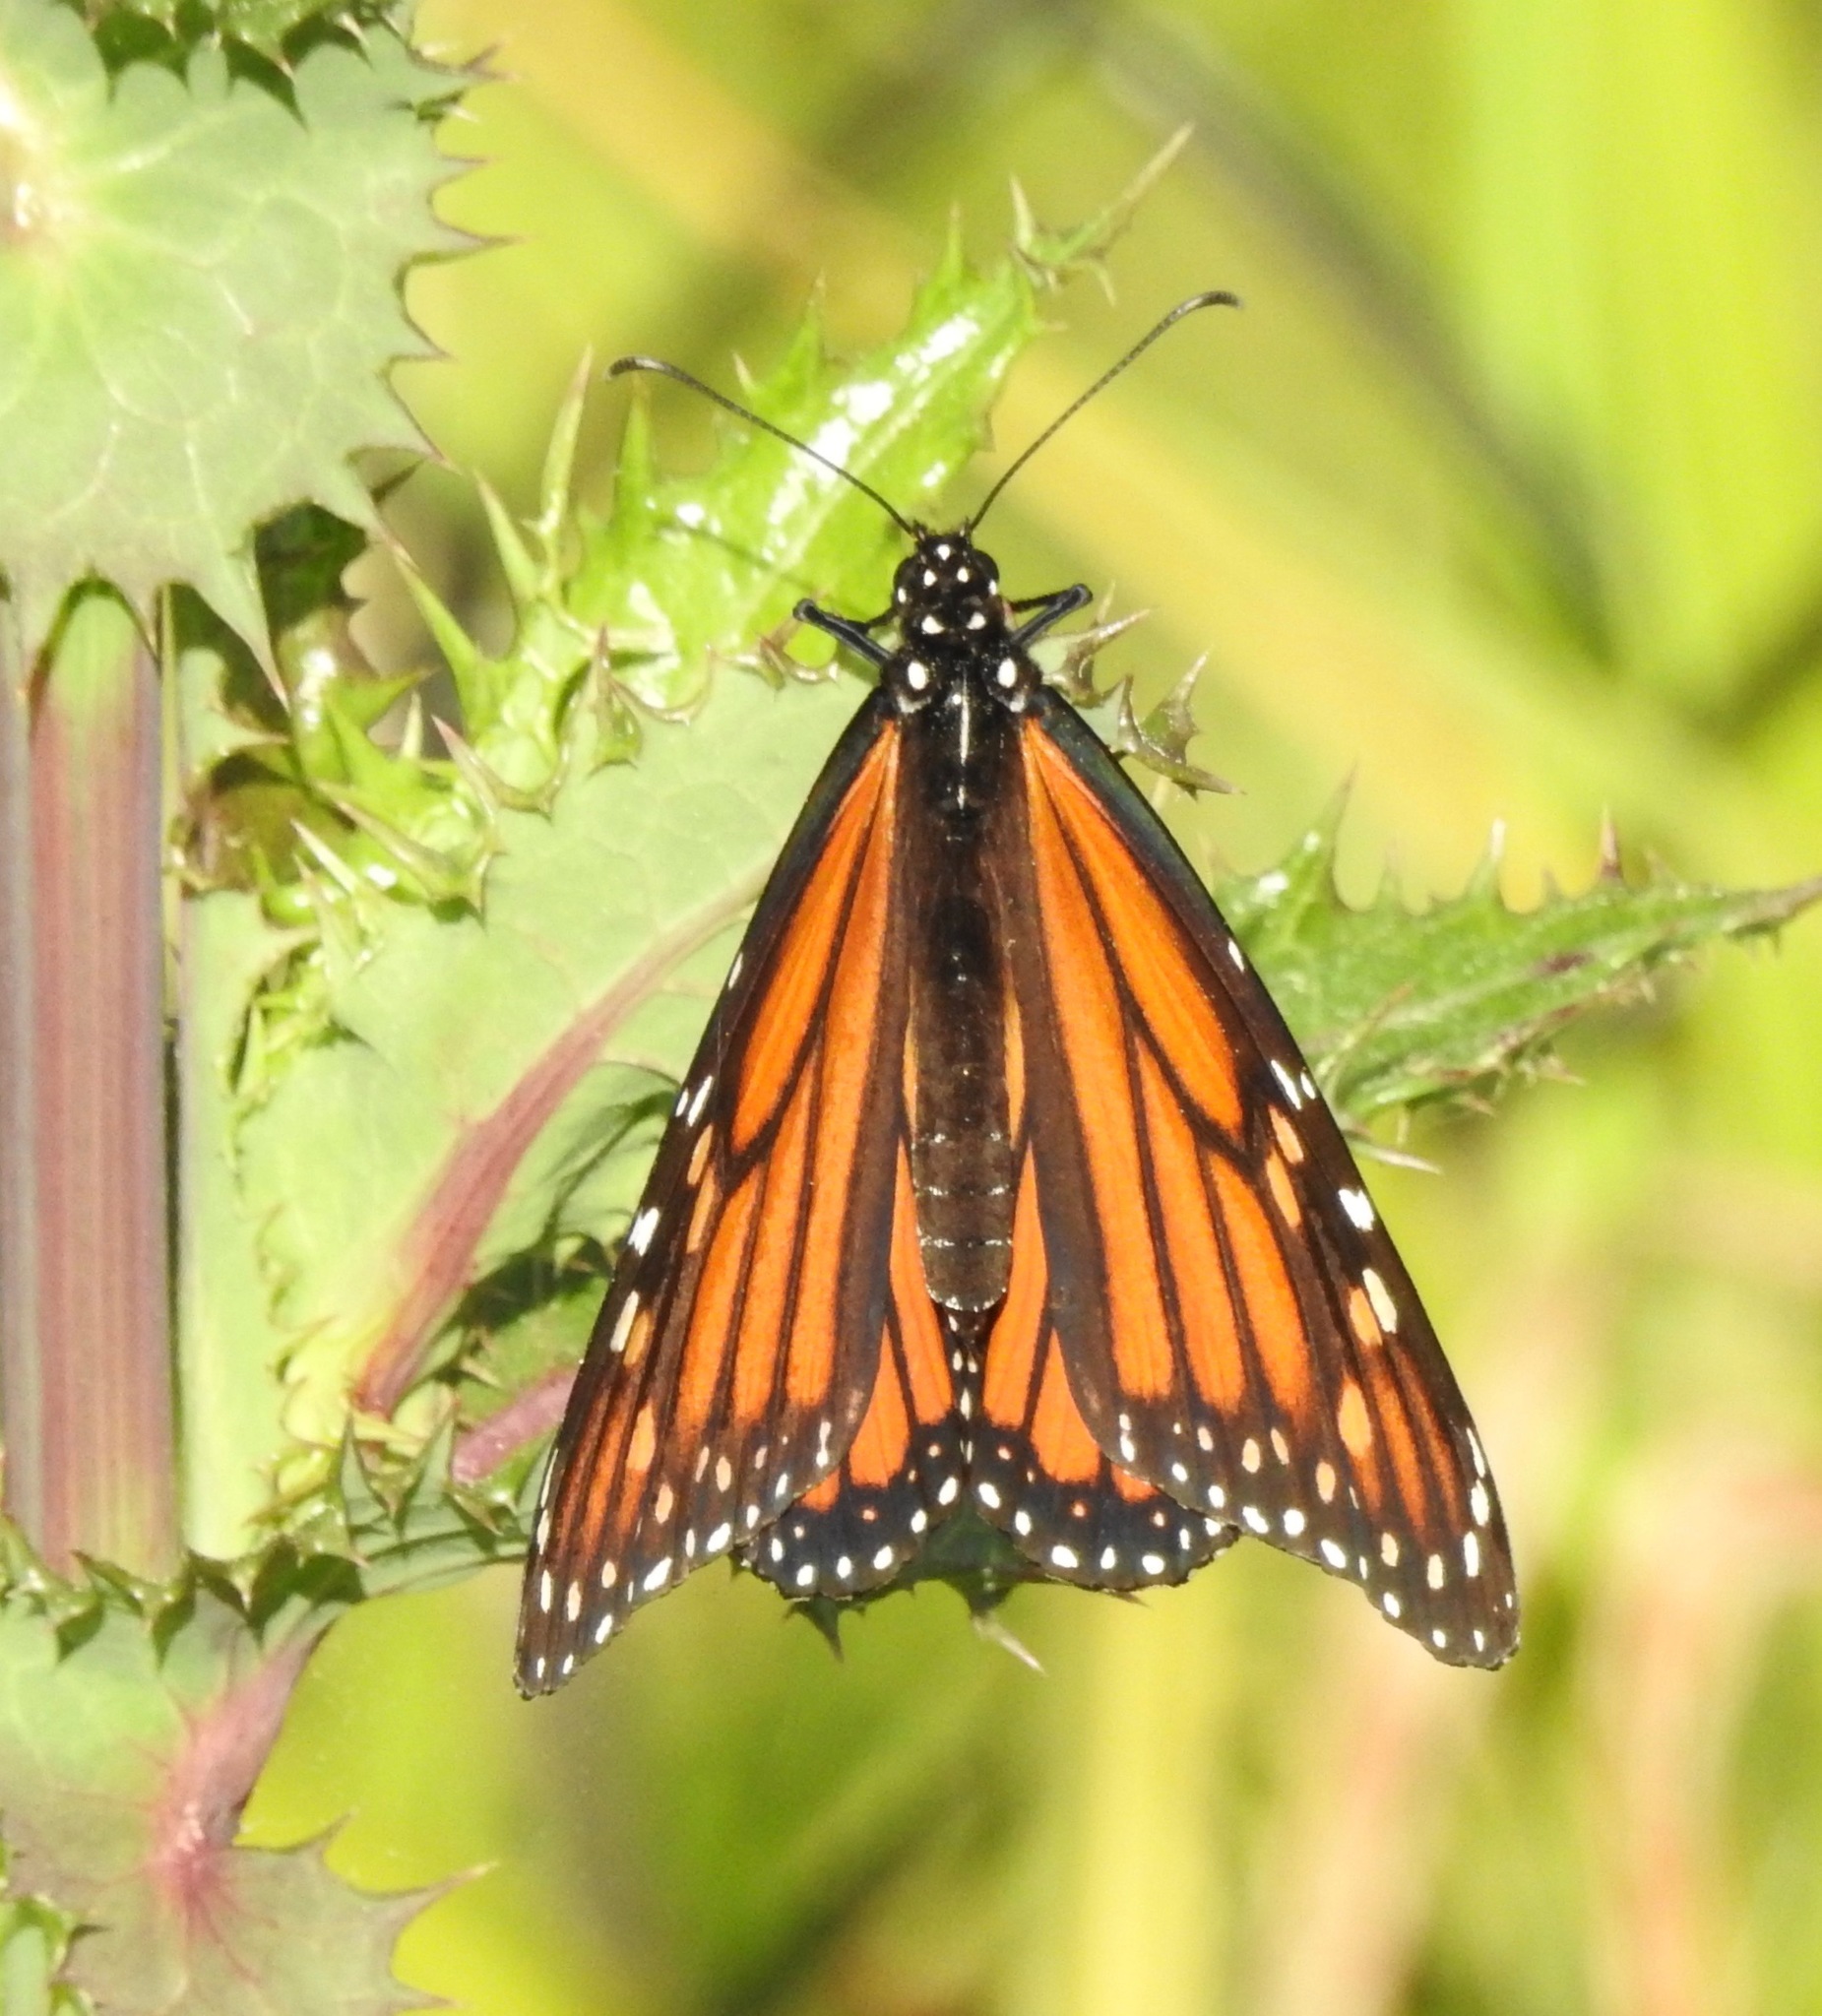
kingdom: Animalia
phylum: Arthropoda
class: Insecta
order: Lepidoptera
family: Nymphalidae
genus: Danaus
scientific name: Danaus plexippus
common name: Monarch
